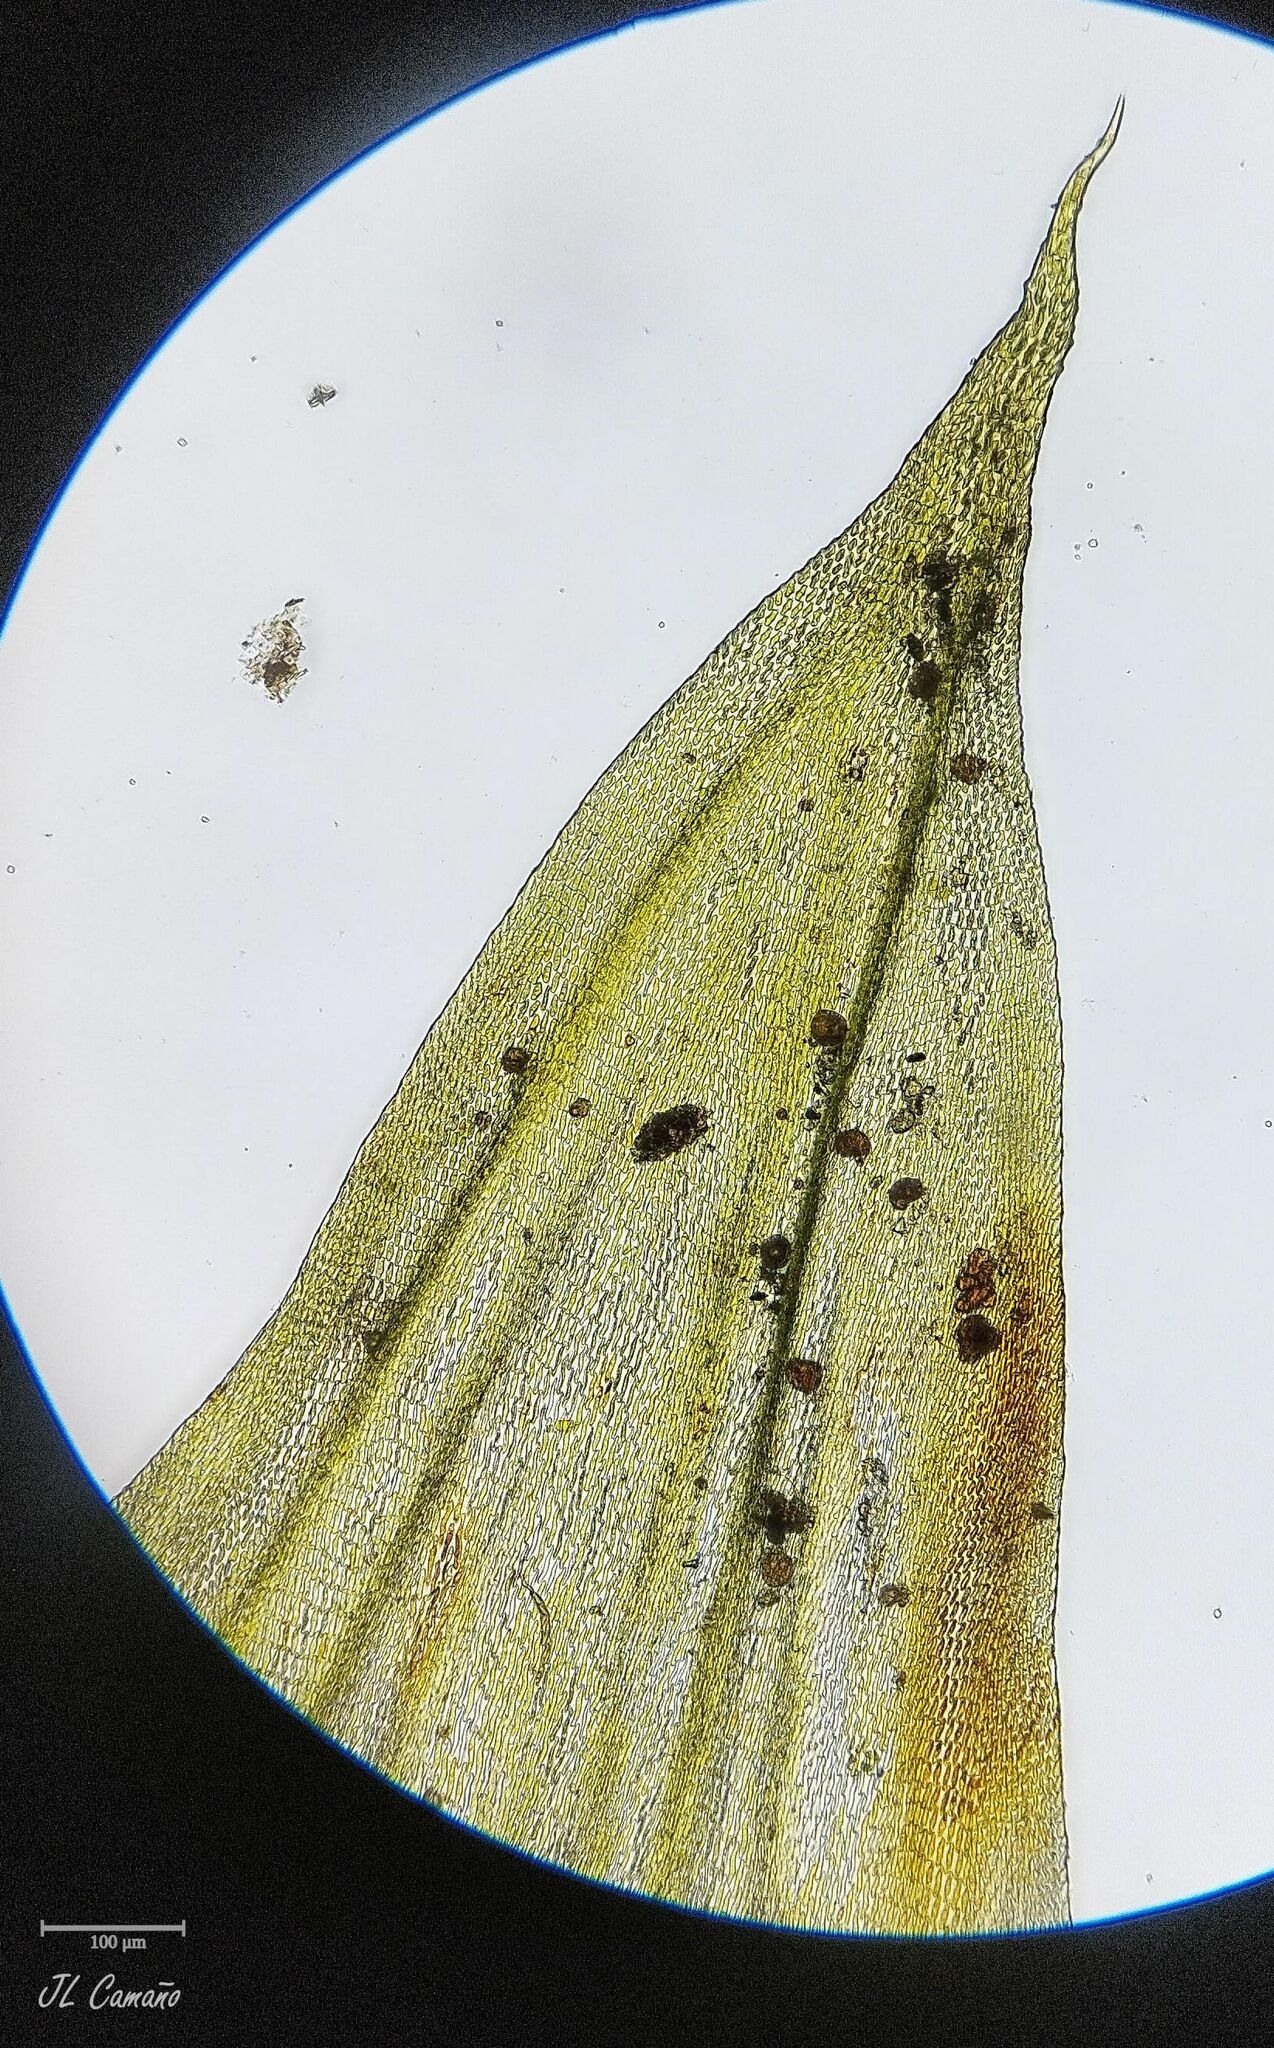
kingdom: Plantae
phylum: Bryophyta
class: Bryopsida
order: Hypnales
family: Leucodontaceae
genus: Leucodon
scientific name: Leucodon sciuroides
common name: Squirrel-tail moss
